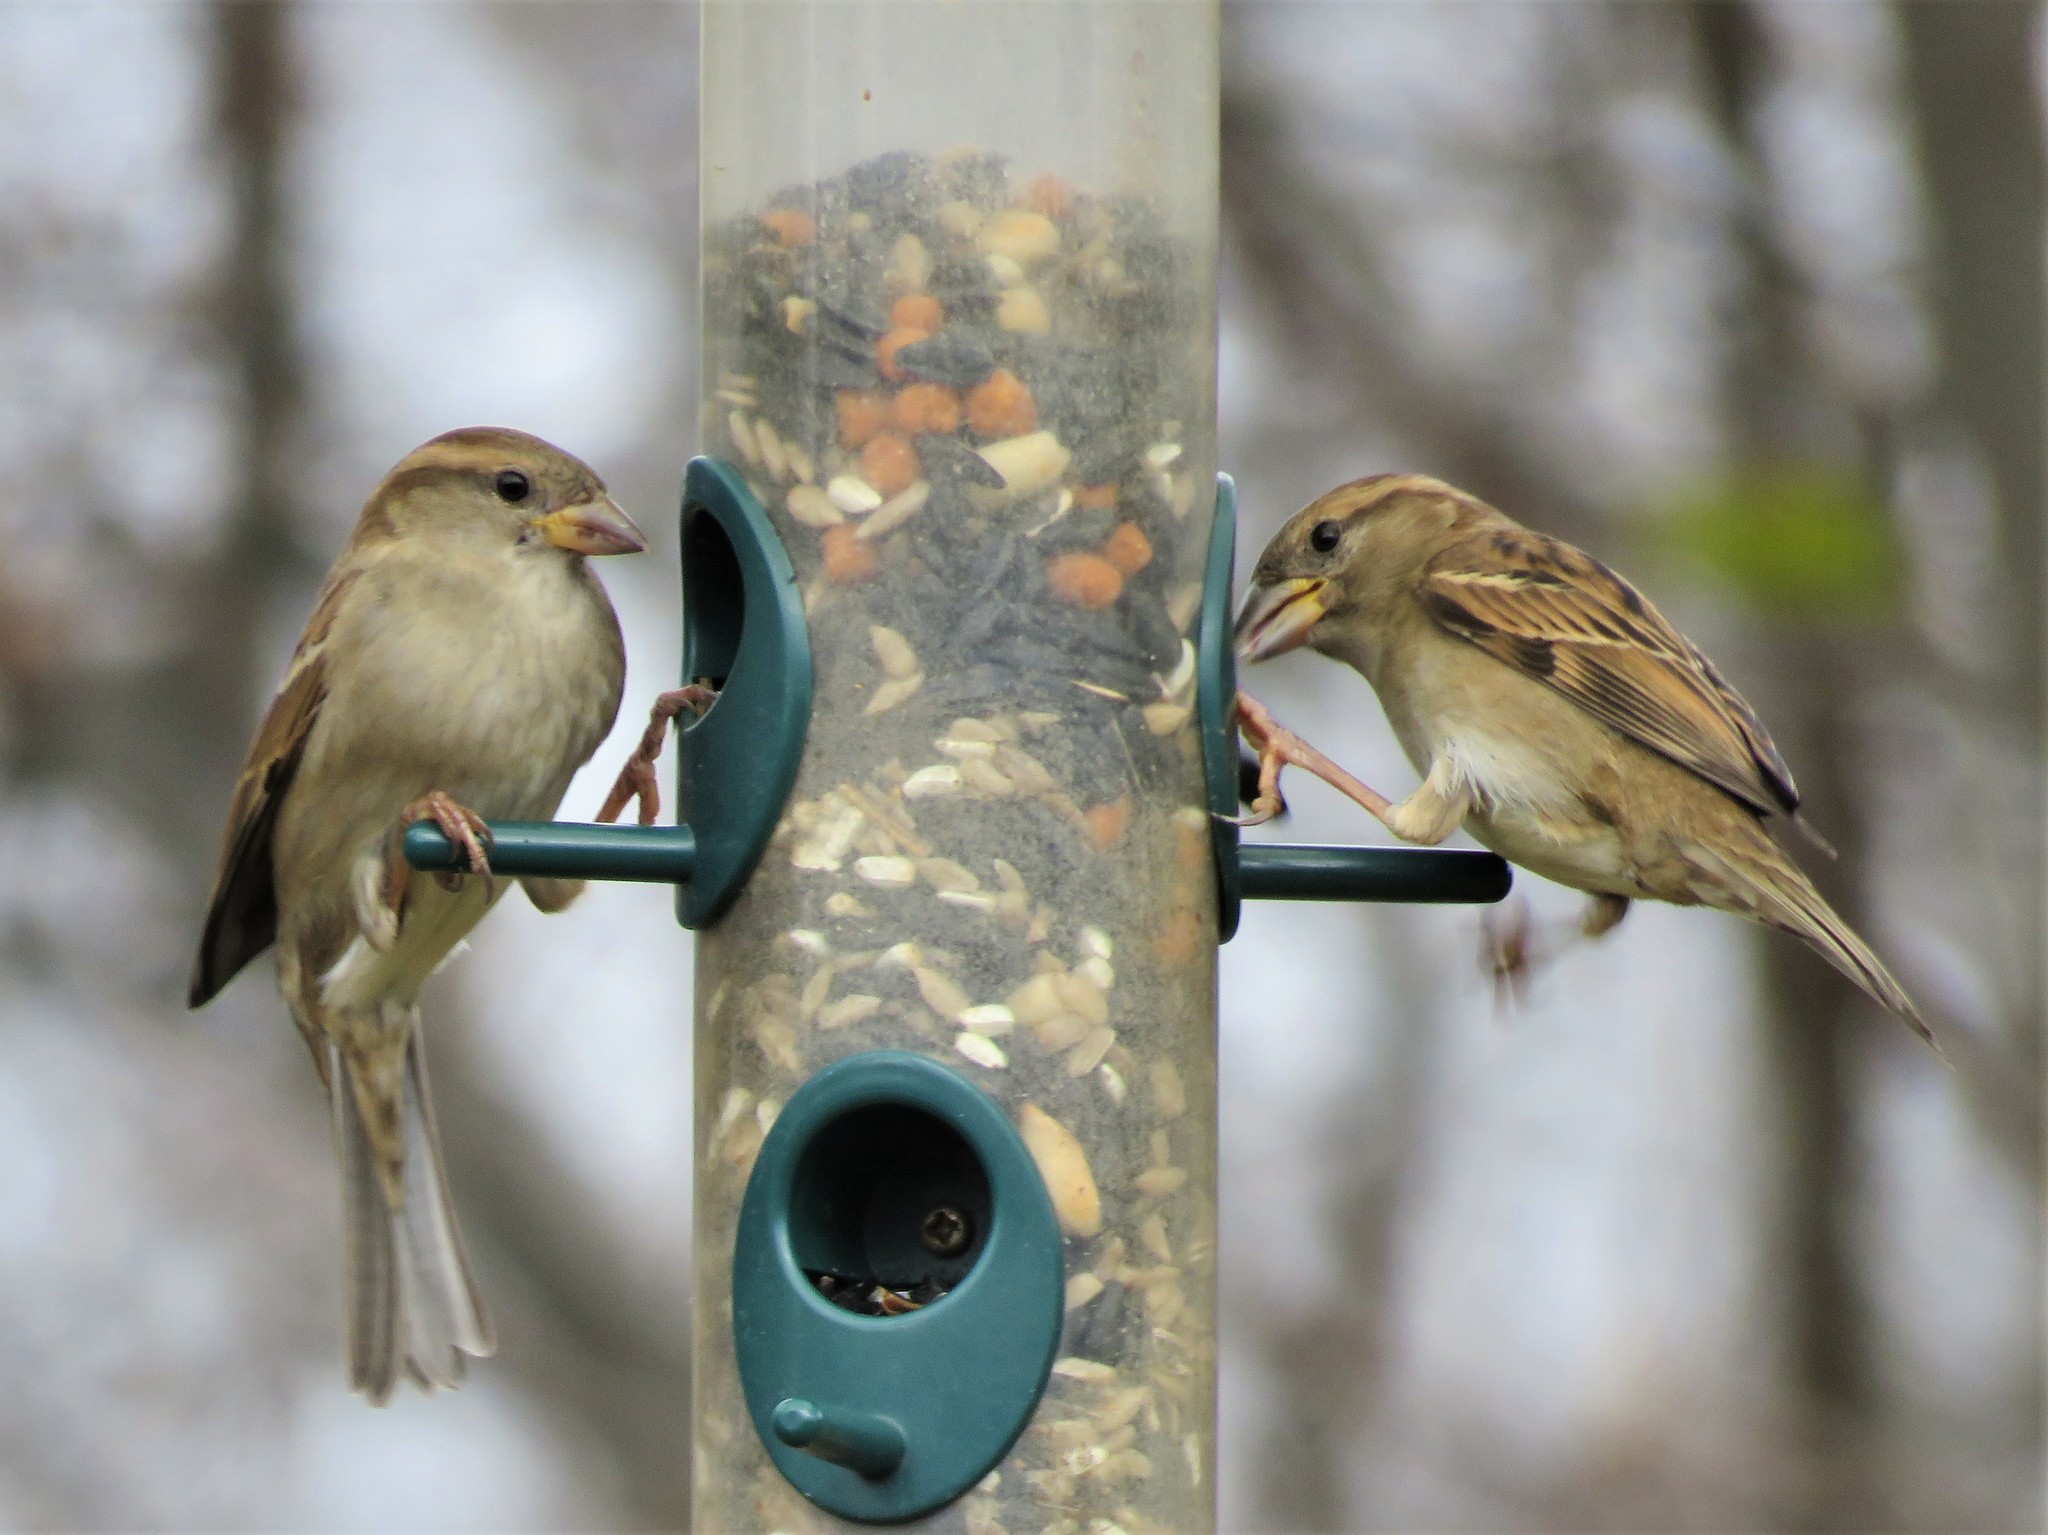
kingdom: Animalia
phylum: Chordata
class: Aves
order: Passeriformes
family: Passeridae
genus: Passer
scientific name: Passer domesticus
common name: House sparrow
